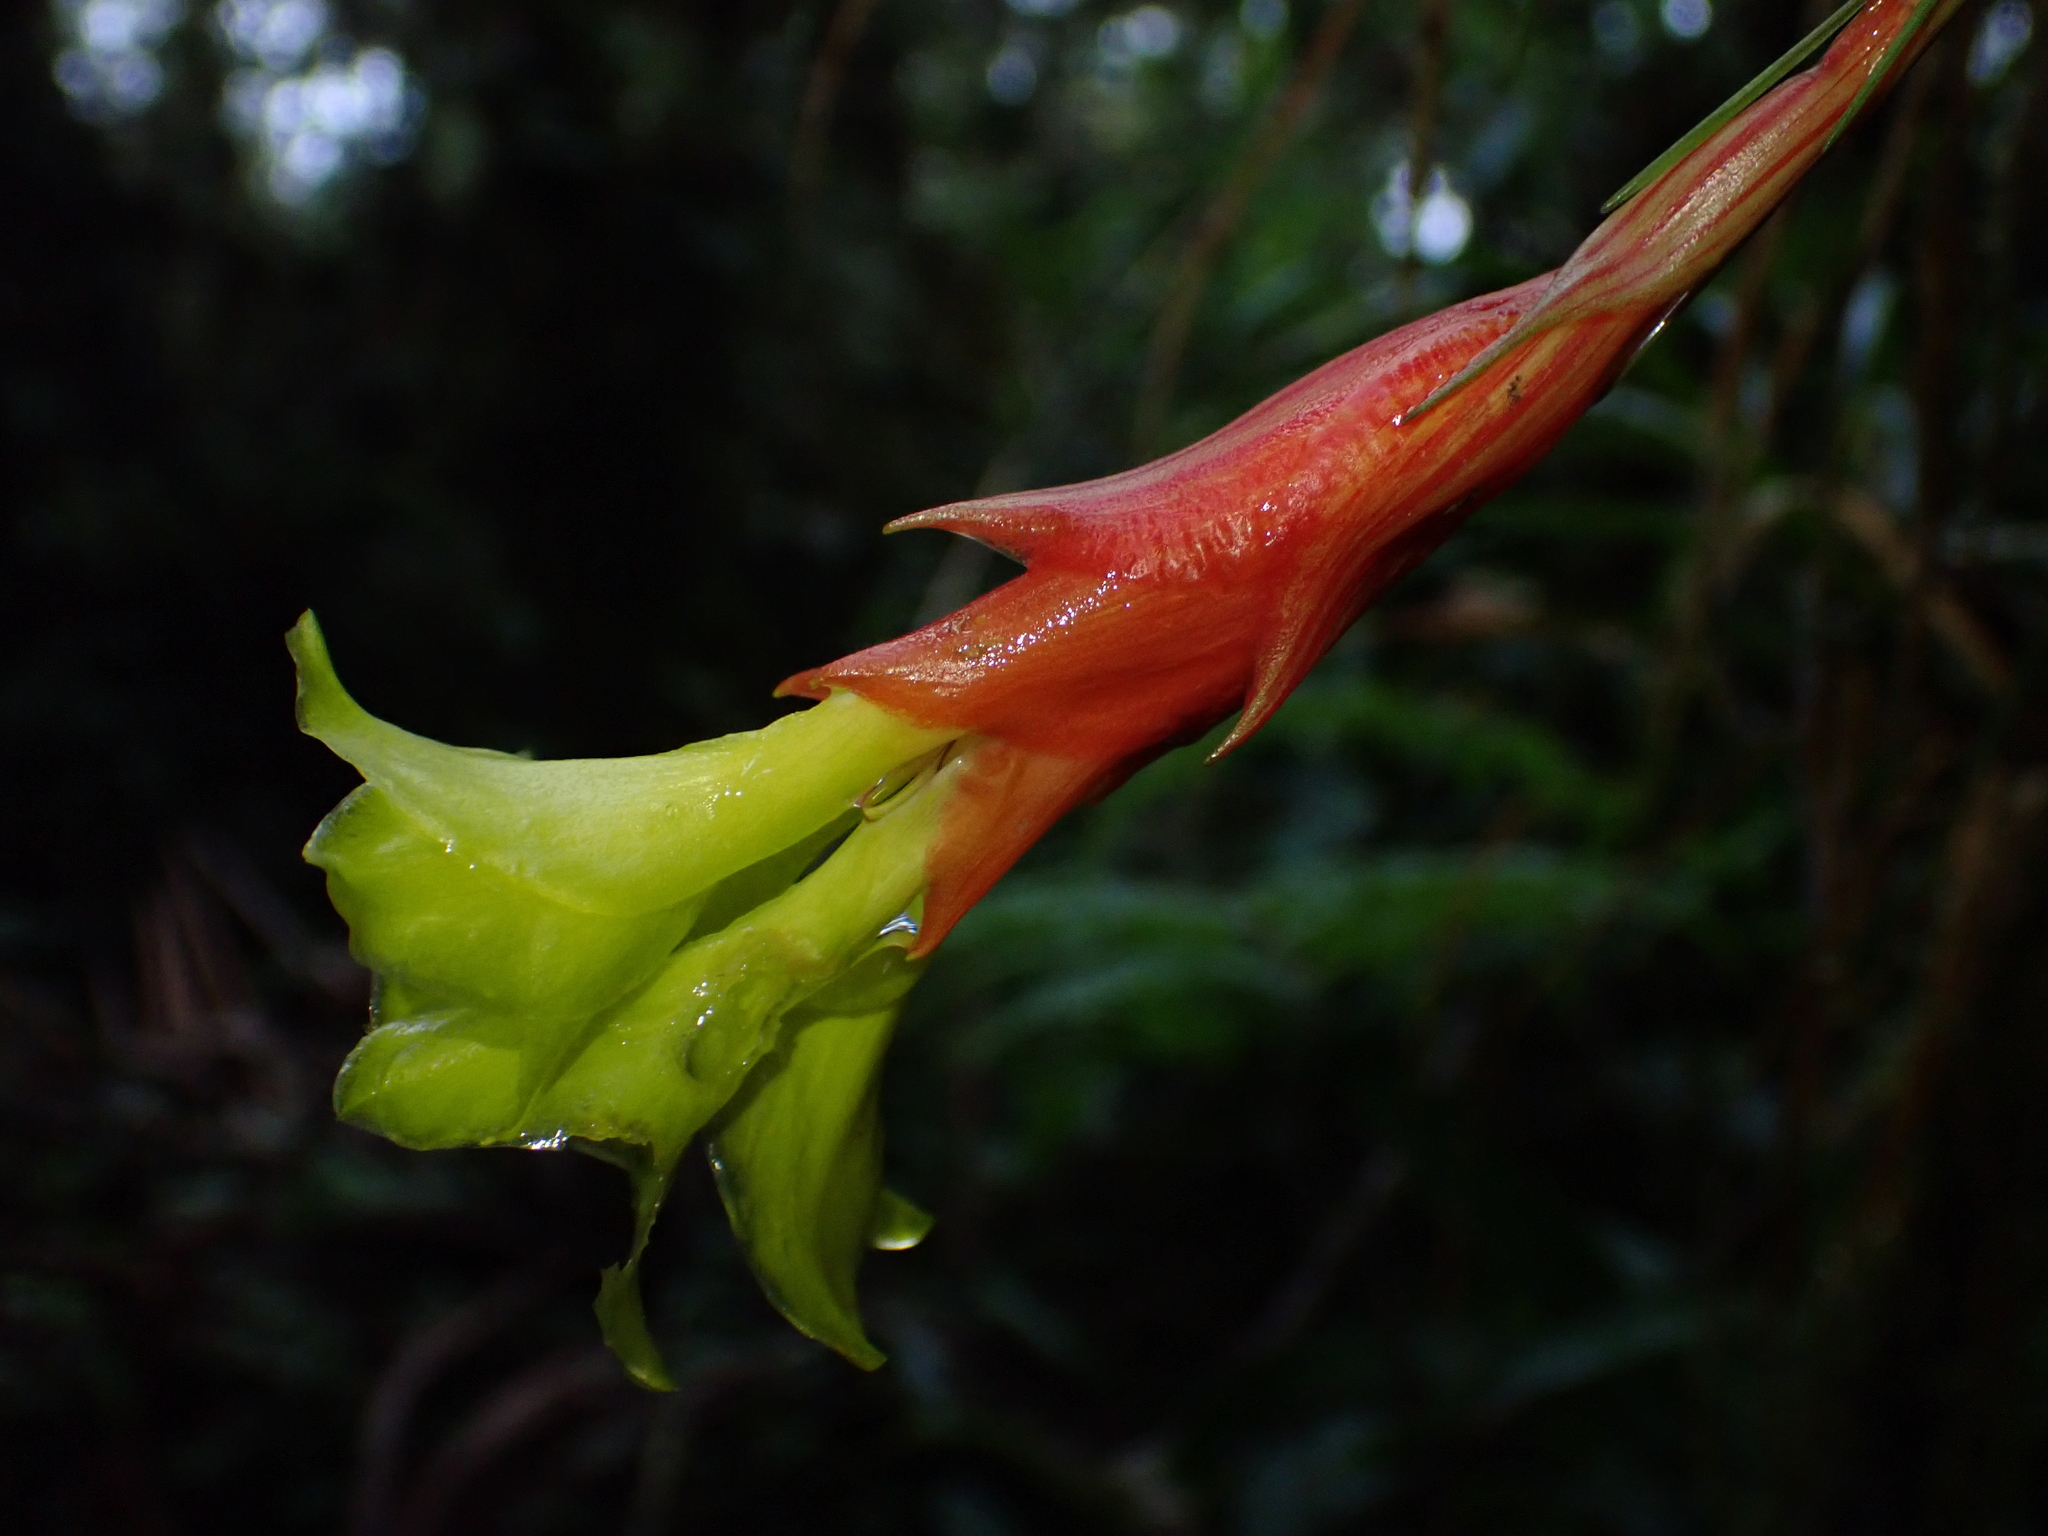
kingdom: Plantae
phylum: Tracheophyta
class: Liliopsida
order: Poales
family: Bromeliaceae
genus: Guzmania
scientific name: Guzmania pearcei
